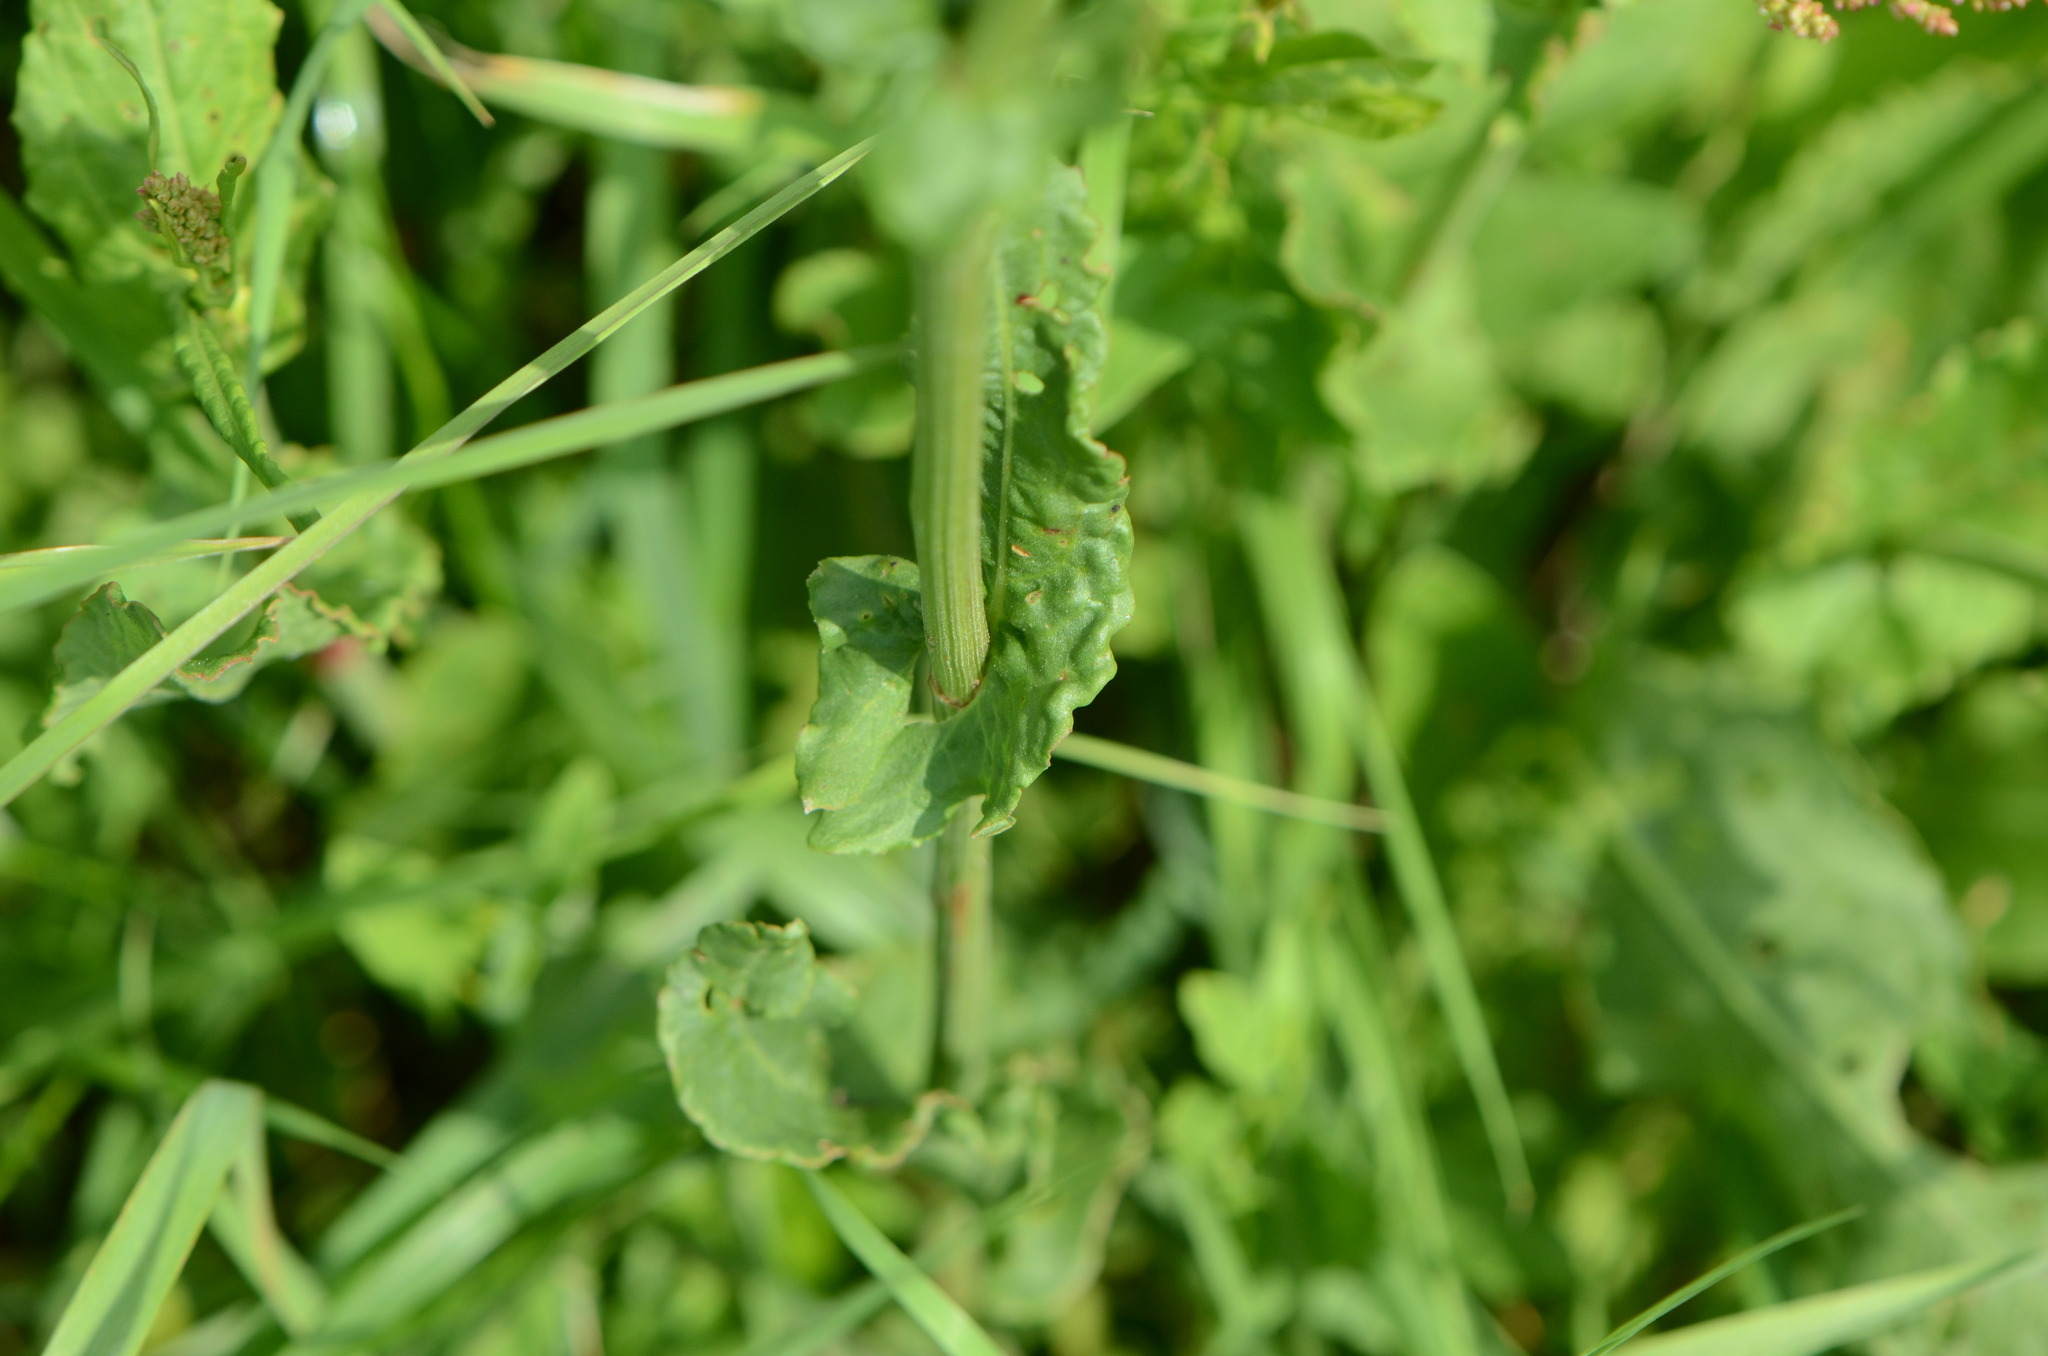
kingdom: Plantae
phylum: Tracheophyta
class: Magnoliopsida
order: Caryophyllales
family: Polygonaceae
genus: Rumex
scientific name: Rumex thyrsiflorus
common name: Garden sorrel
